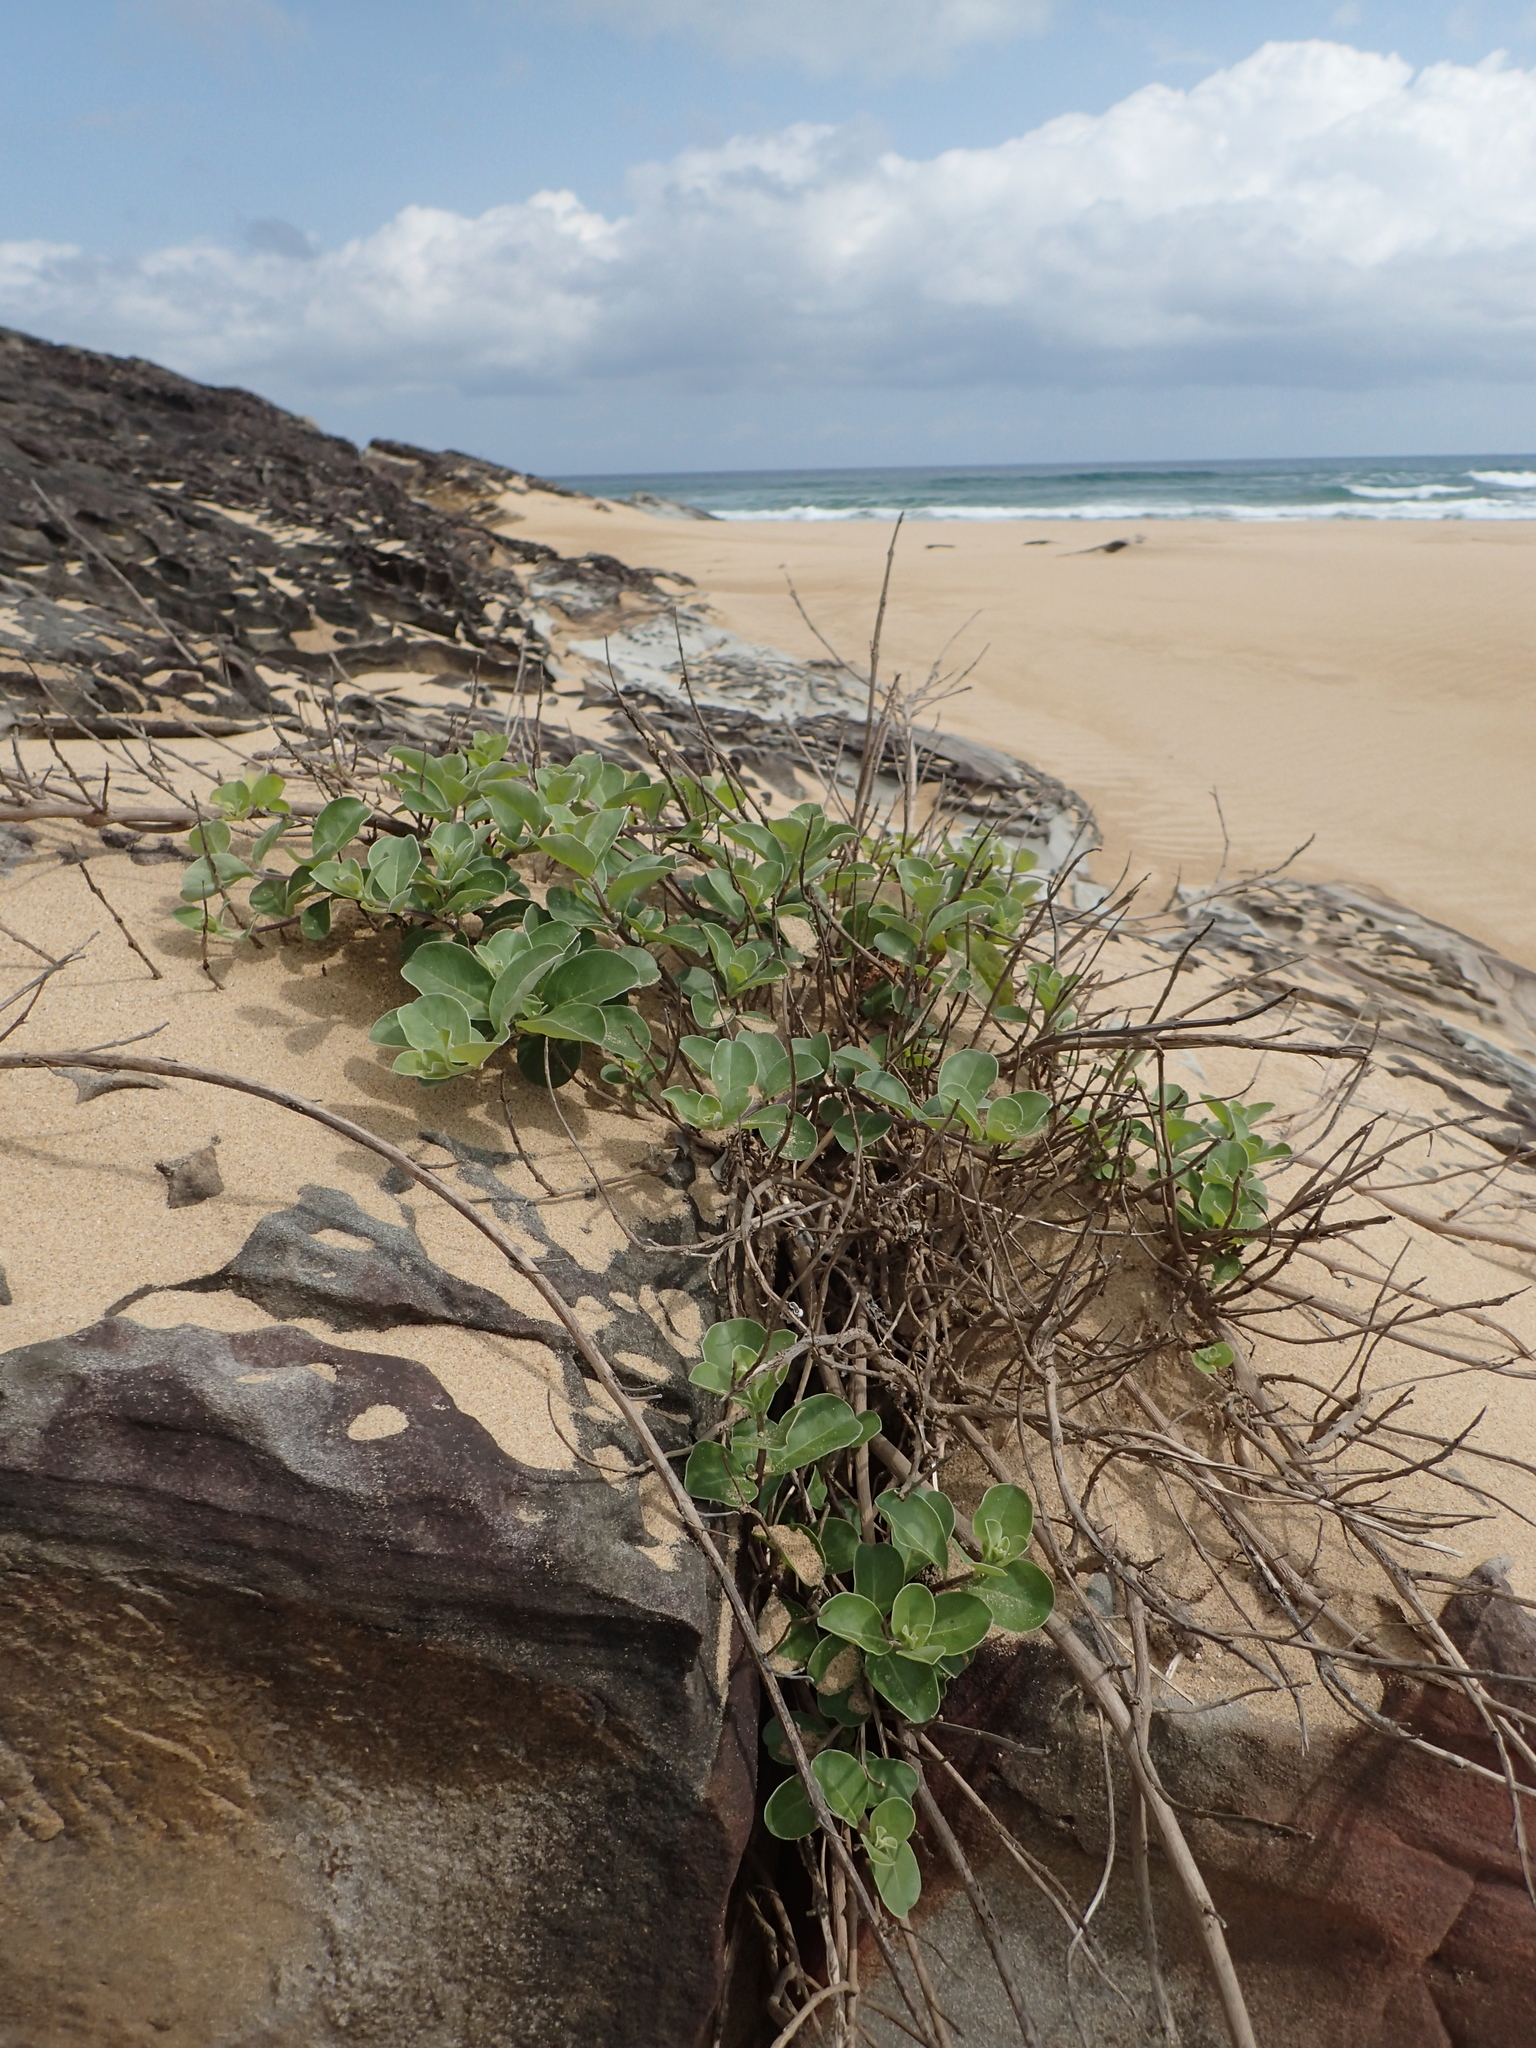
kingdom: Plantae
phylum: Tracheophyta
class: Magnoliopsida
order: Lamiales
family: Lamiaceae
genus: Vitex
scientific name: Vitex rotundifolia
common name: Beach vitex
